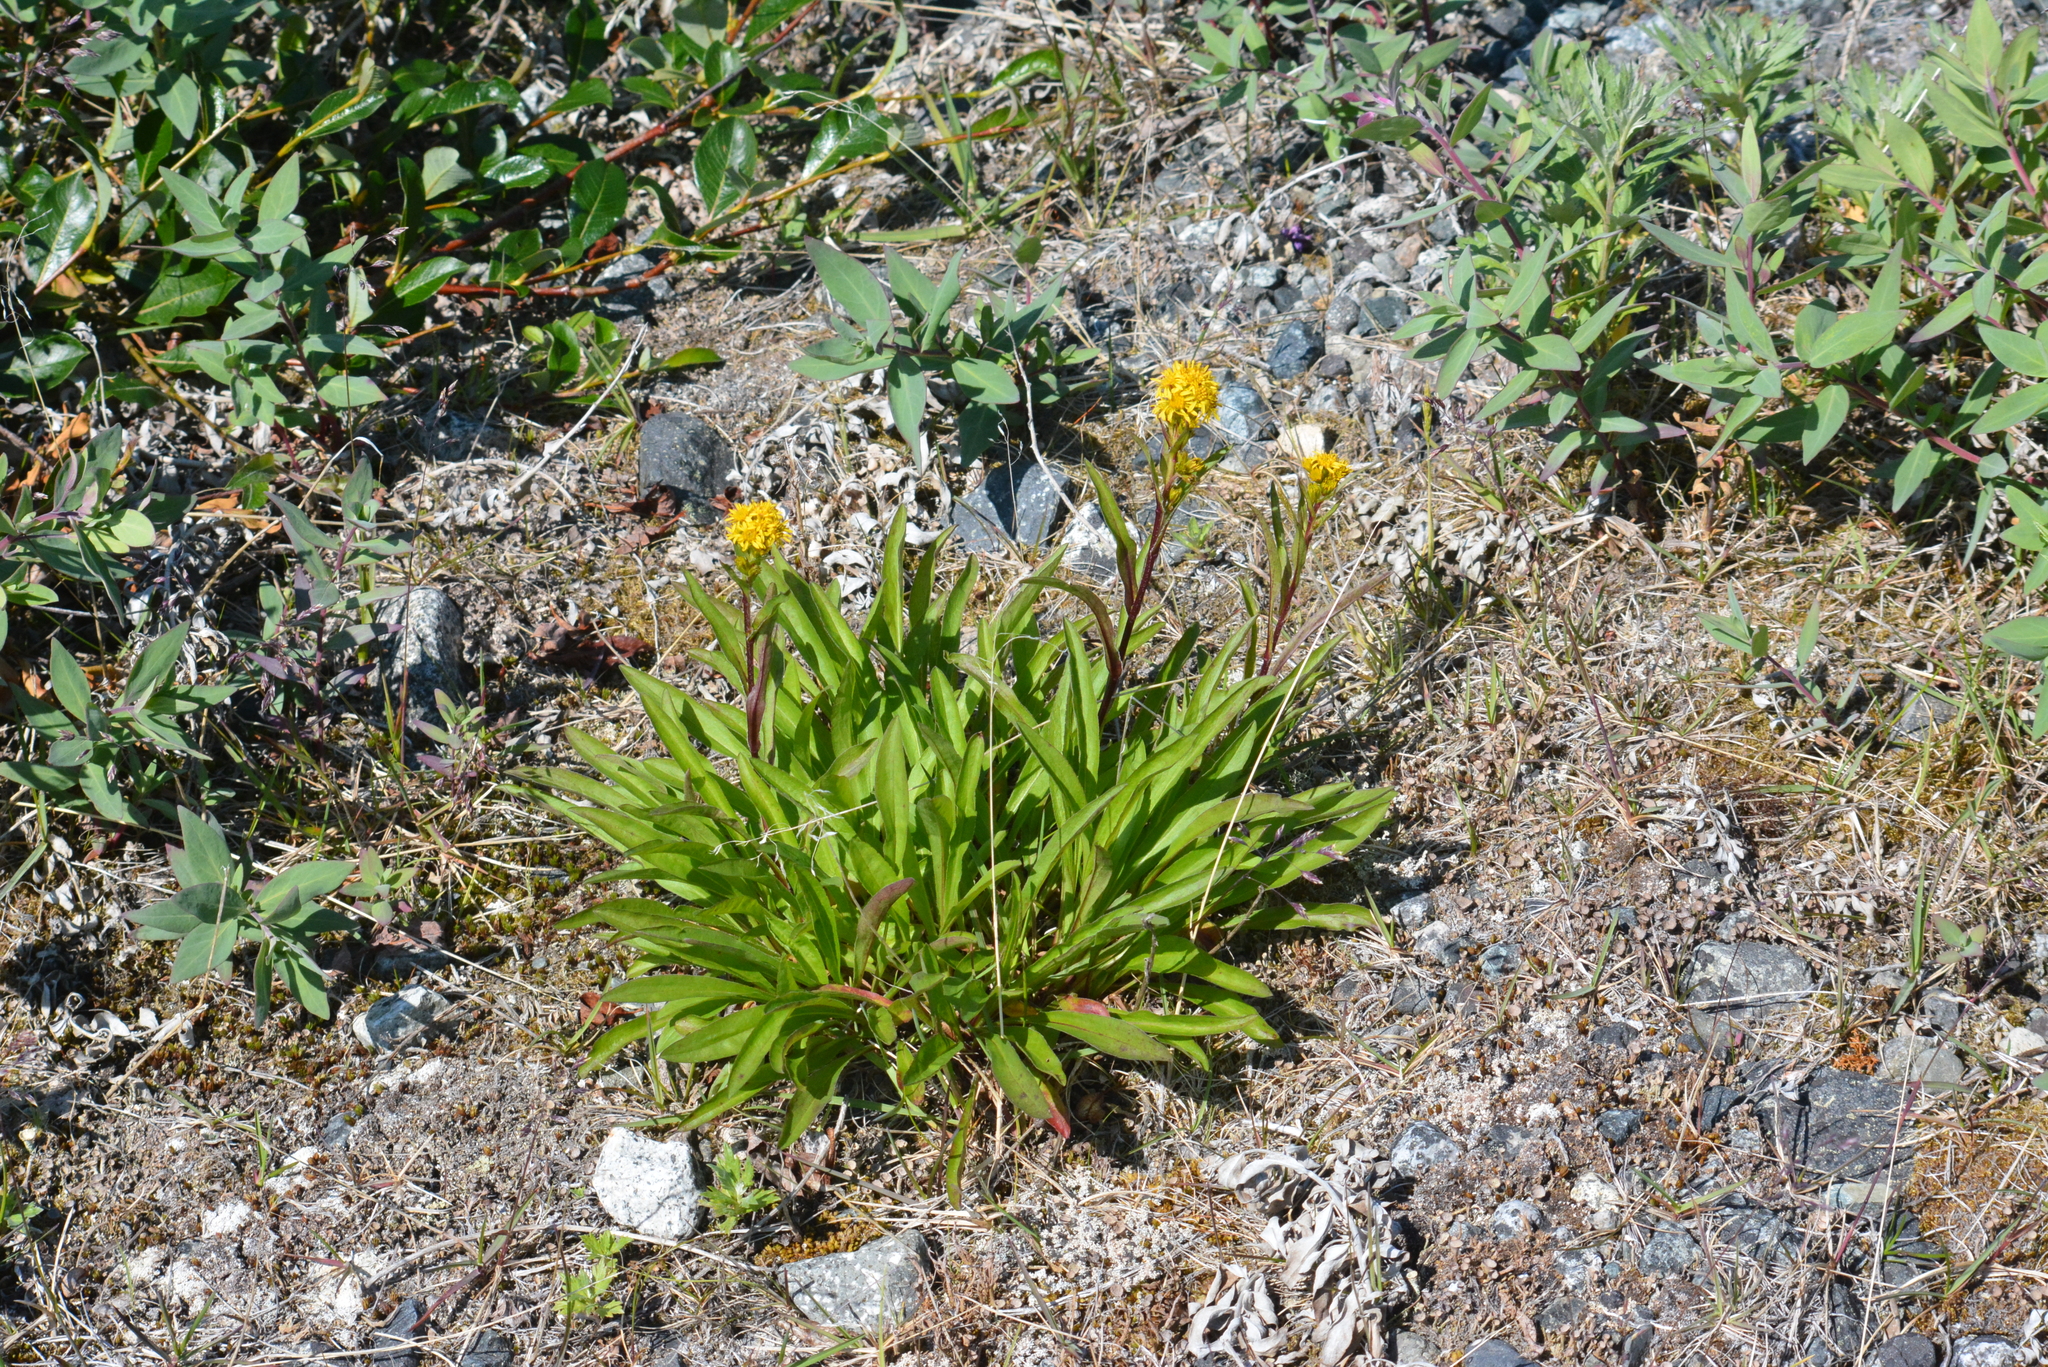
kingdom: Plantae
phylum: Tracheophyta
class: Magnoliopsida
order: Asterales
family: Asteraceae
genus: Solidago
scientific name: Solidago compacta
